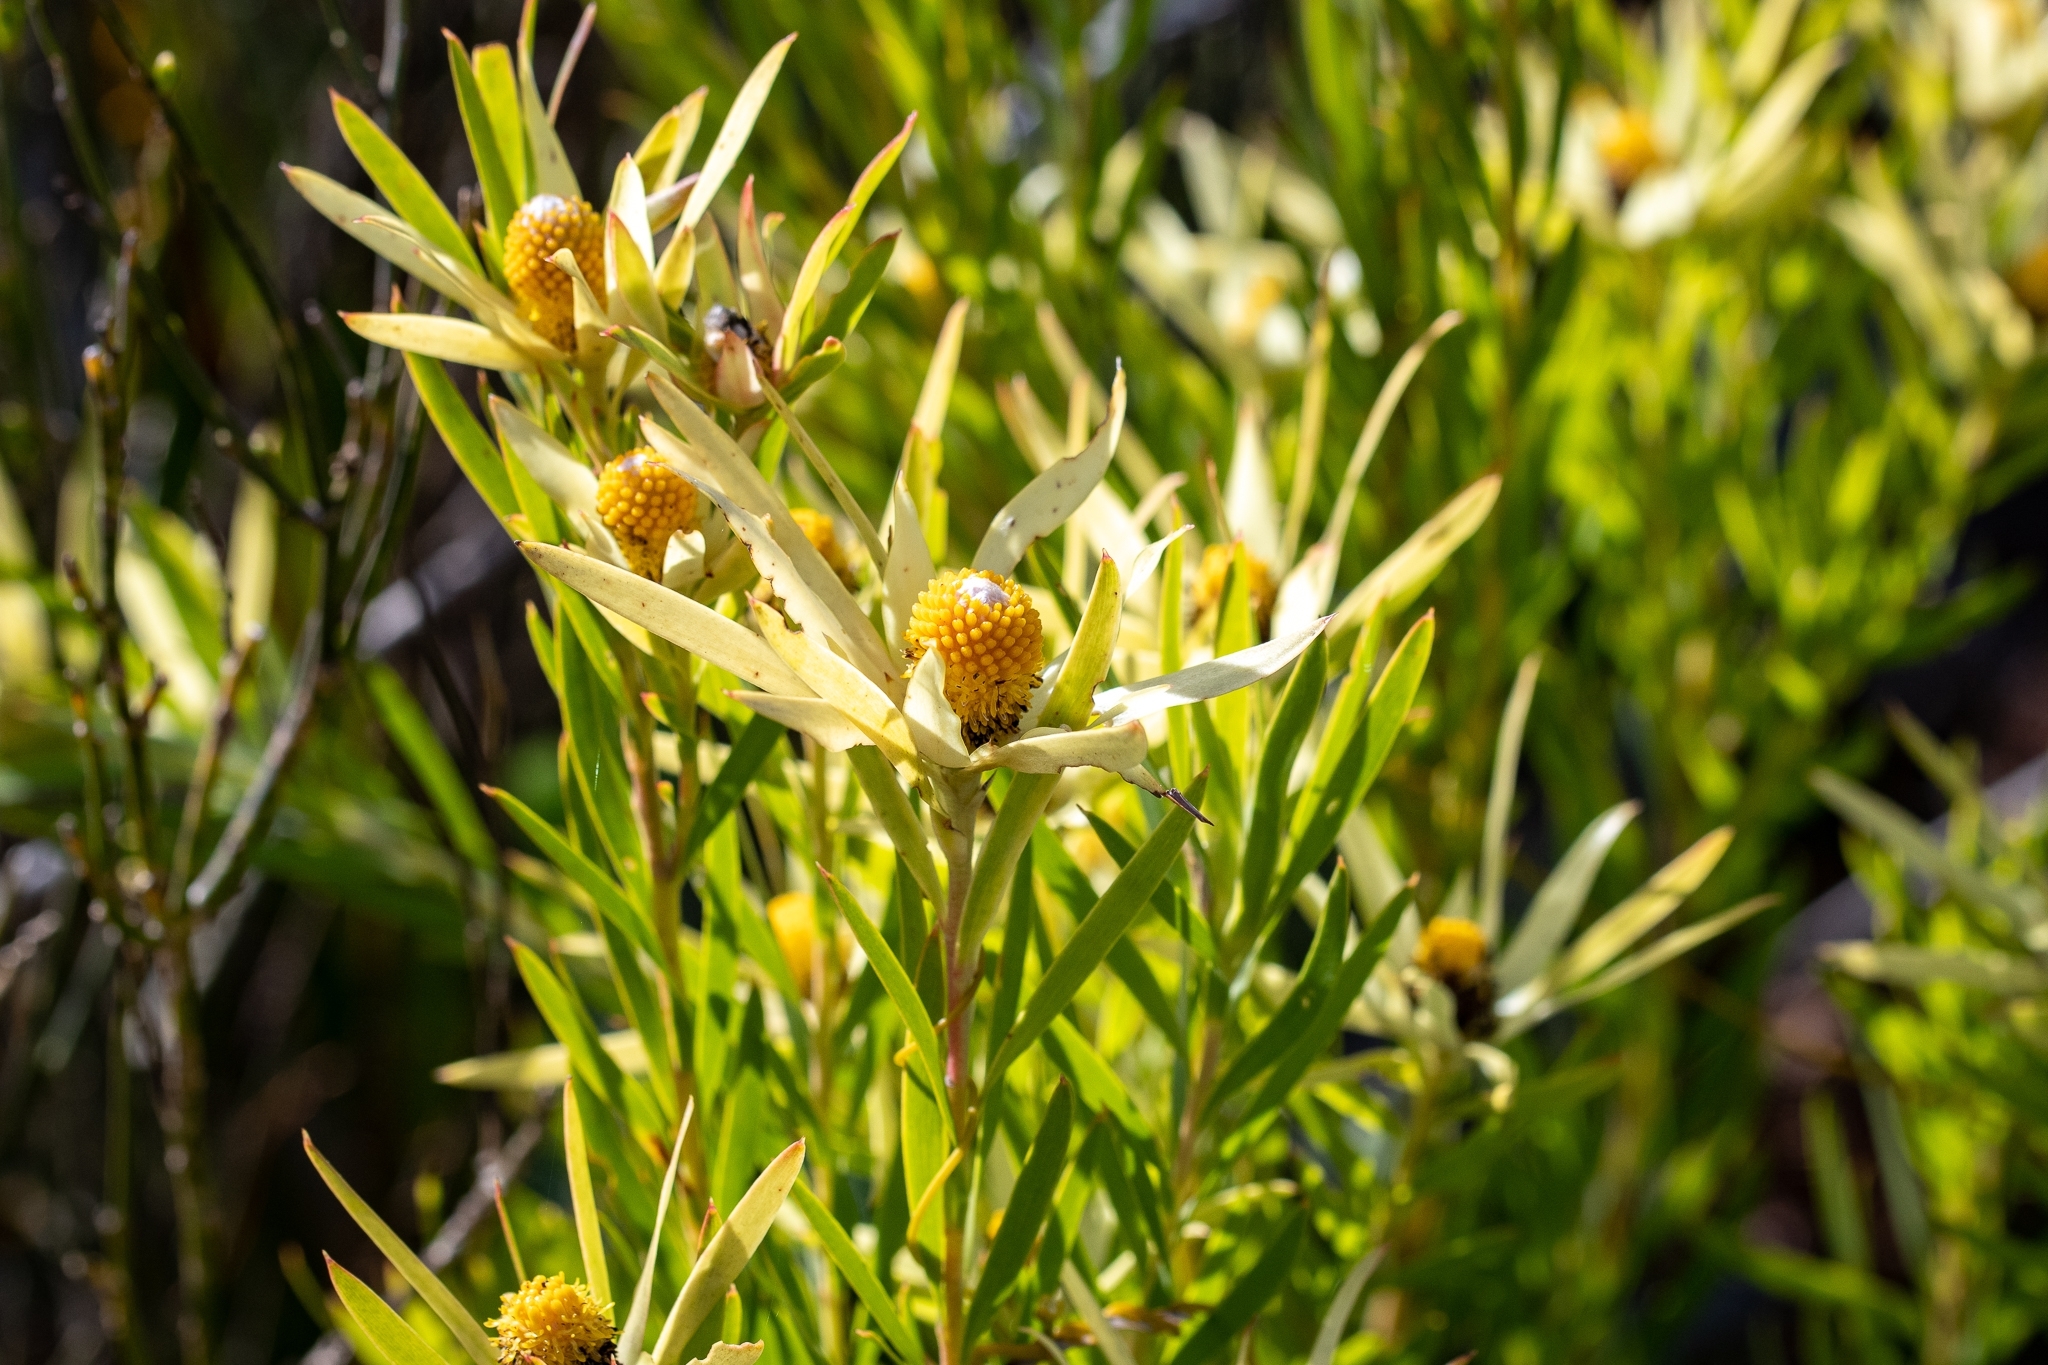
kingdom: Plantae
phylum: Tracheophyta
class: Magnoliopsida
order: Proteales
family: Proteaceae
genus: Leucadendron
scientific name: Leucadendron xanthoconus
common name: Sickle-leaf conebush
